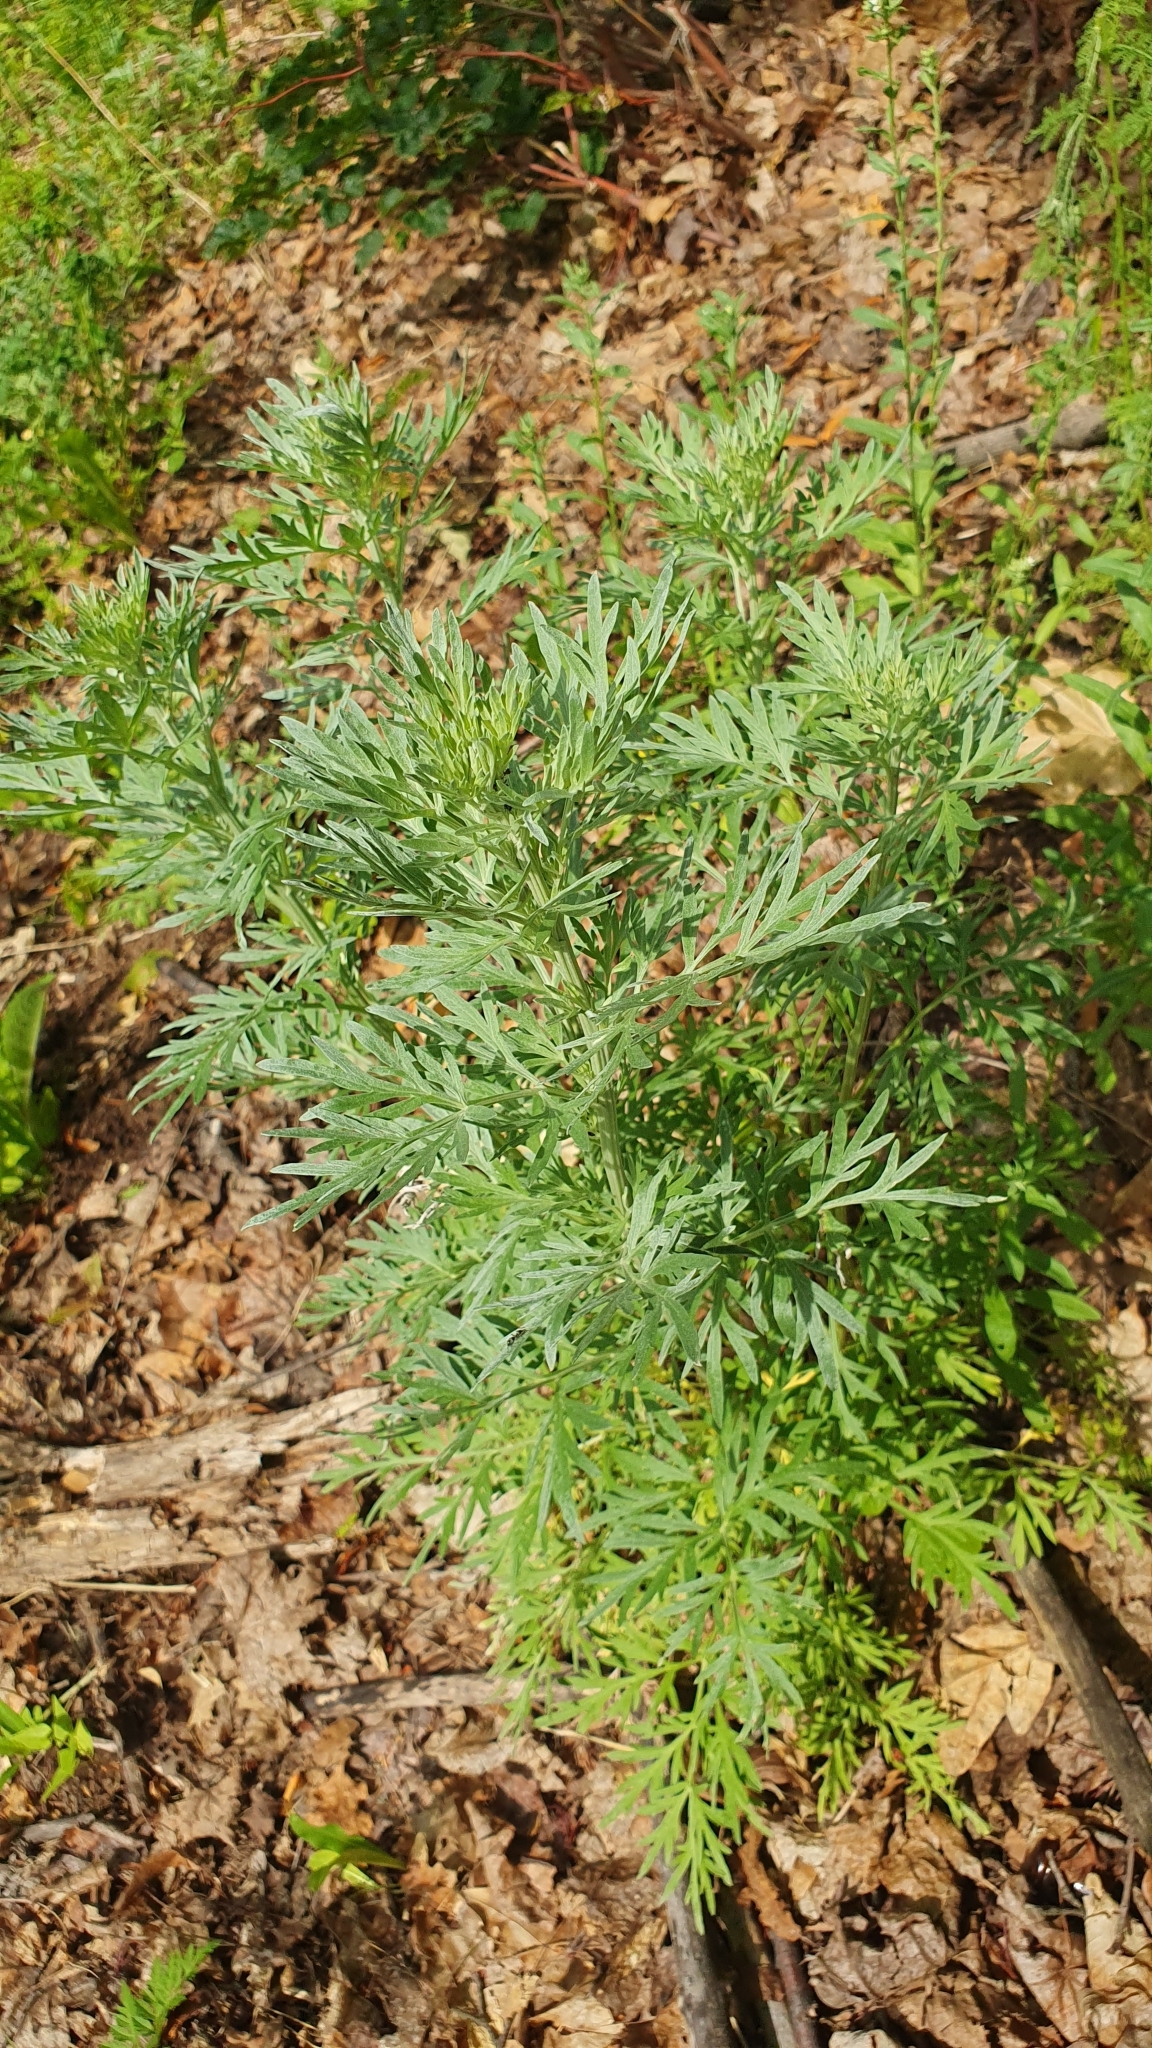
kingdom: Plantae
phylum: Tracheophyta
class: Magnoliopsida
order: Asterales
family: Asteraceae
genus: Artemisia
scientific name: Artemisia absinthium
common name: Wormwood
